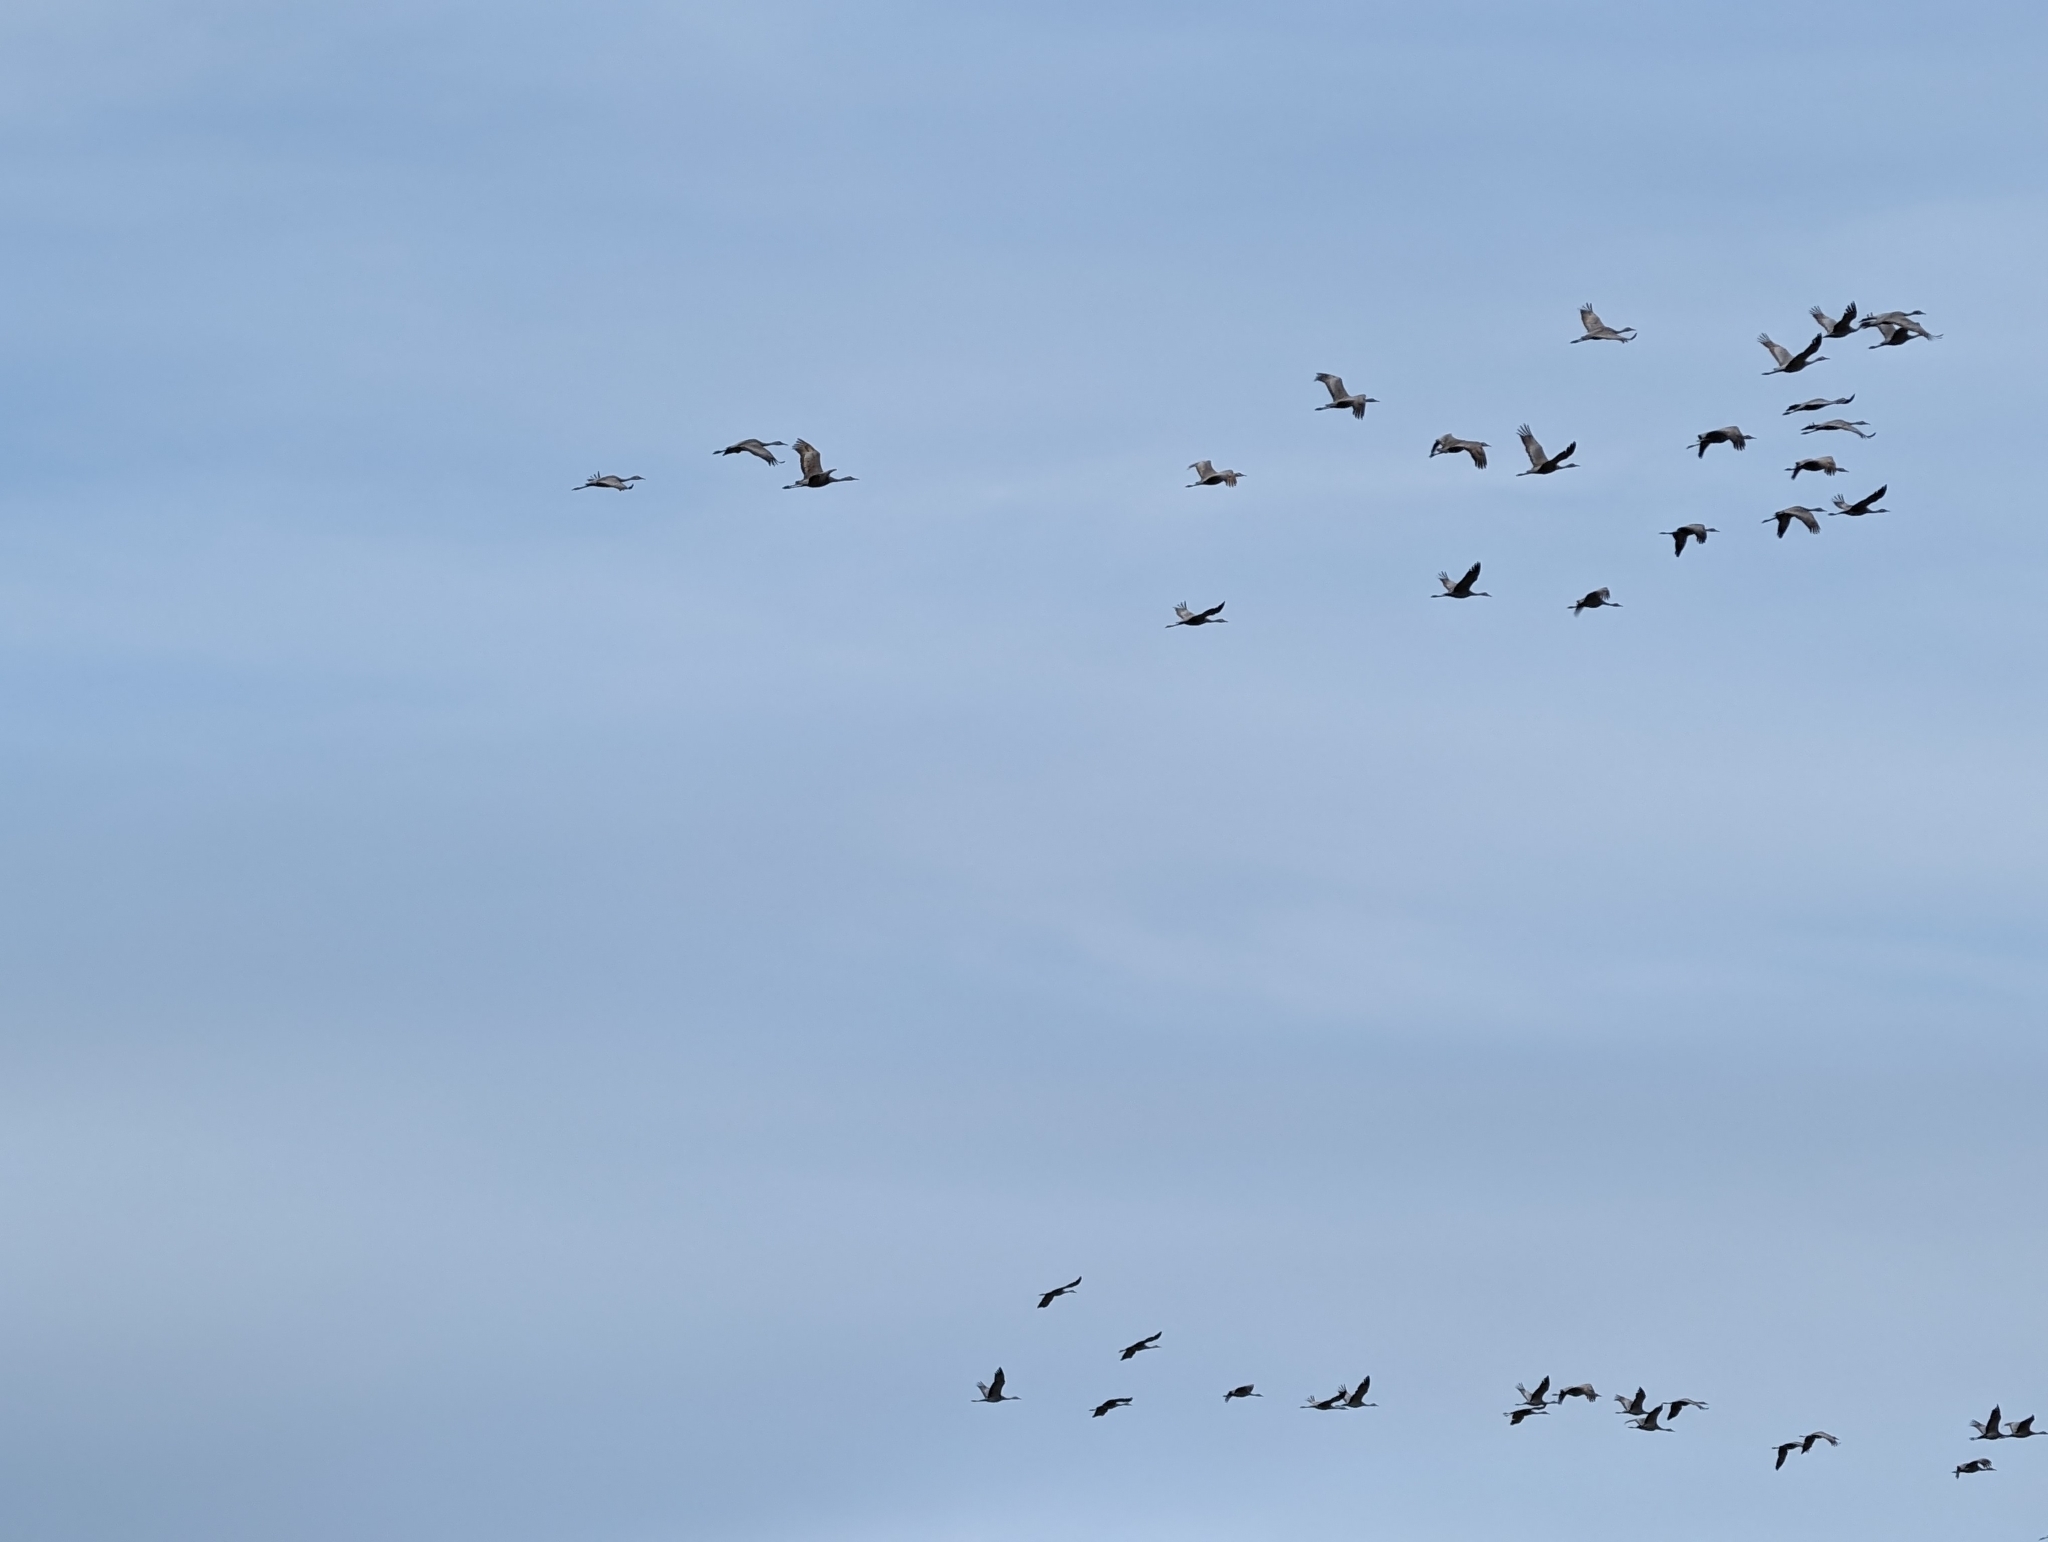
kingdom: Animalia
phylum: Chordata
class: Aves
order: Gruiformes
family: Gruidae
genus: Grus
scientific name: Grus canadensis
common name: Sandhill crane
